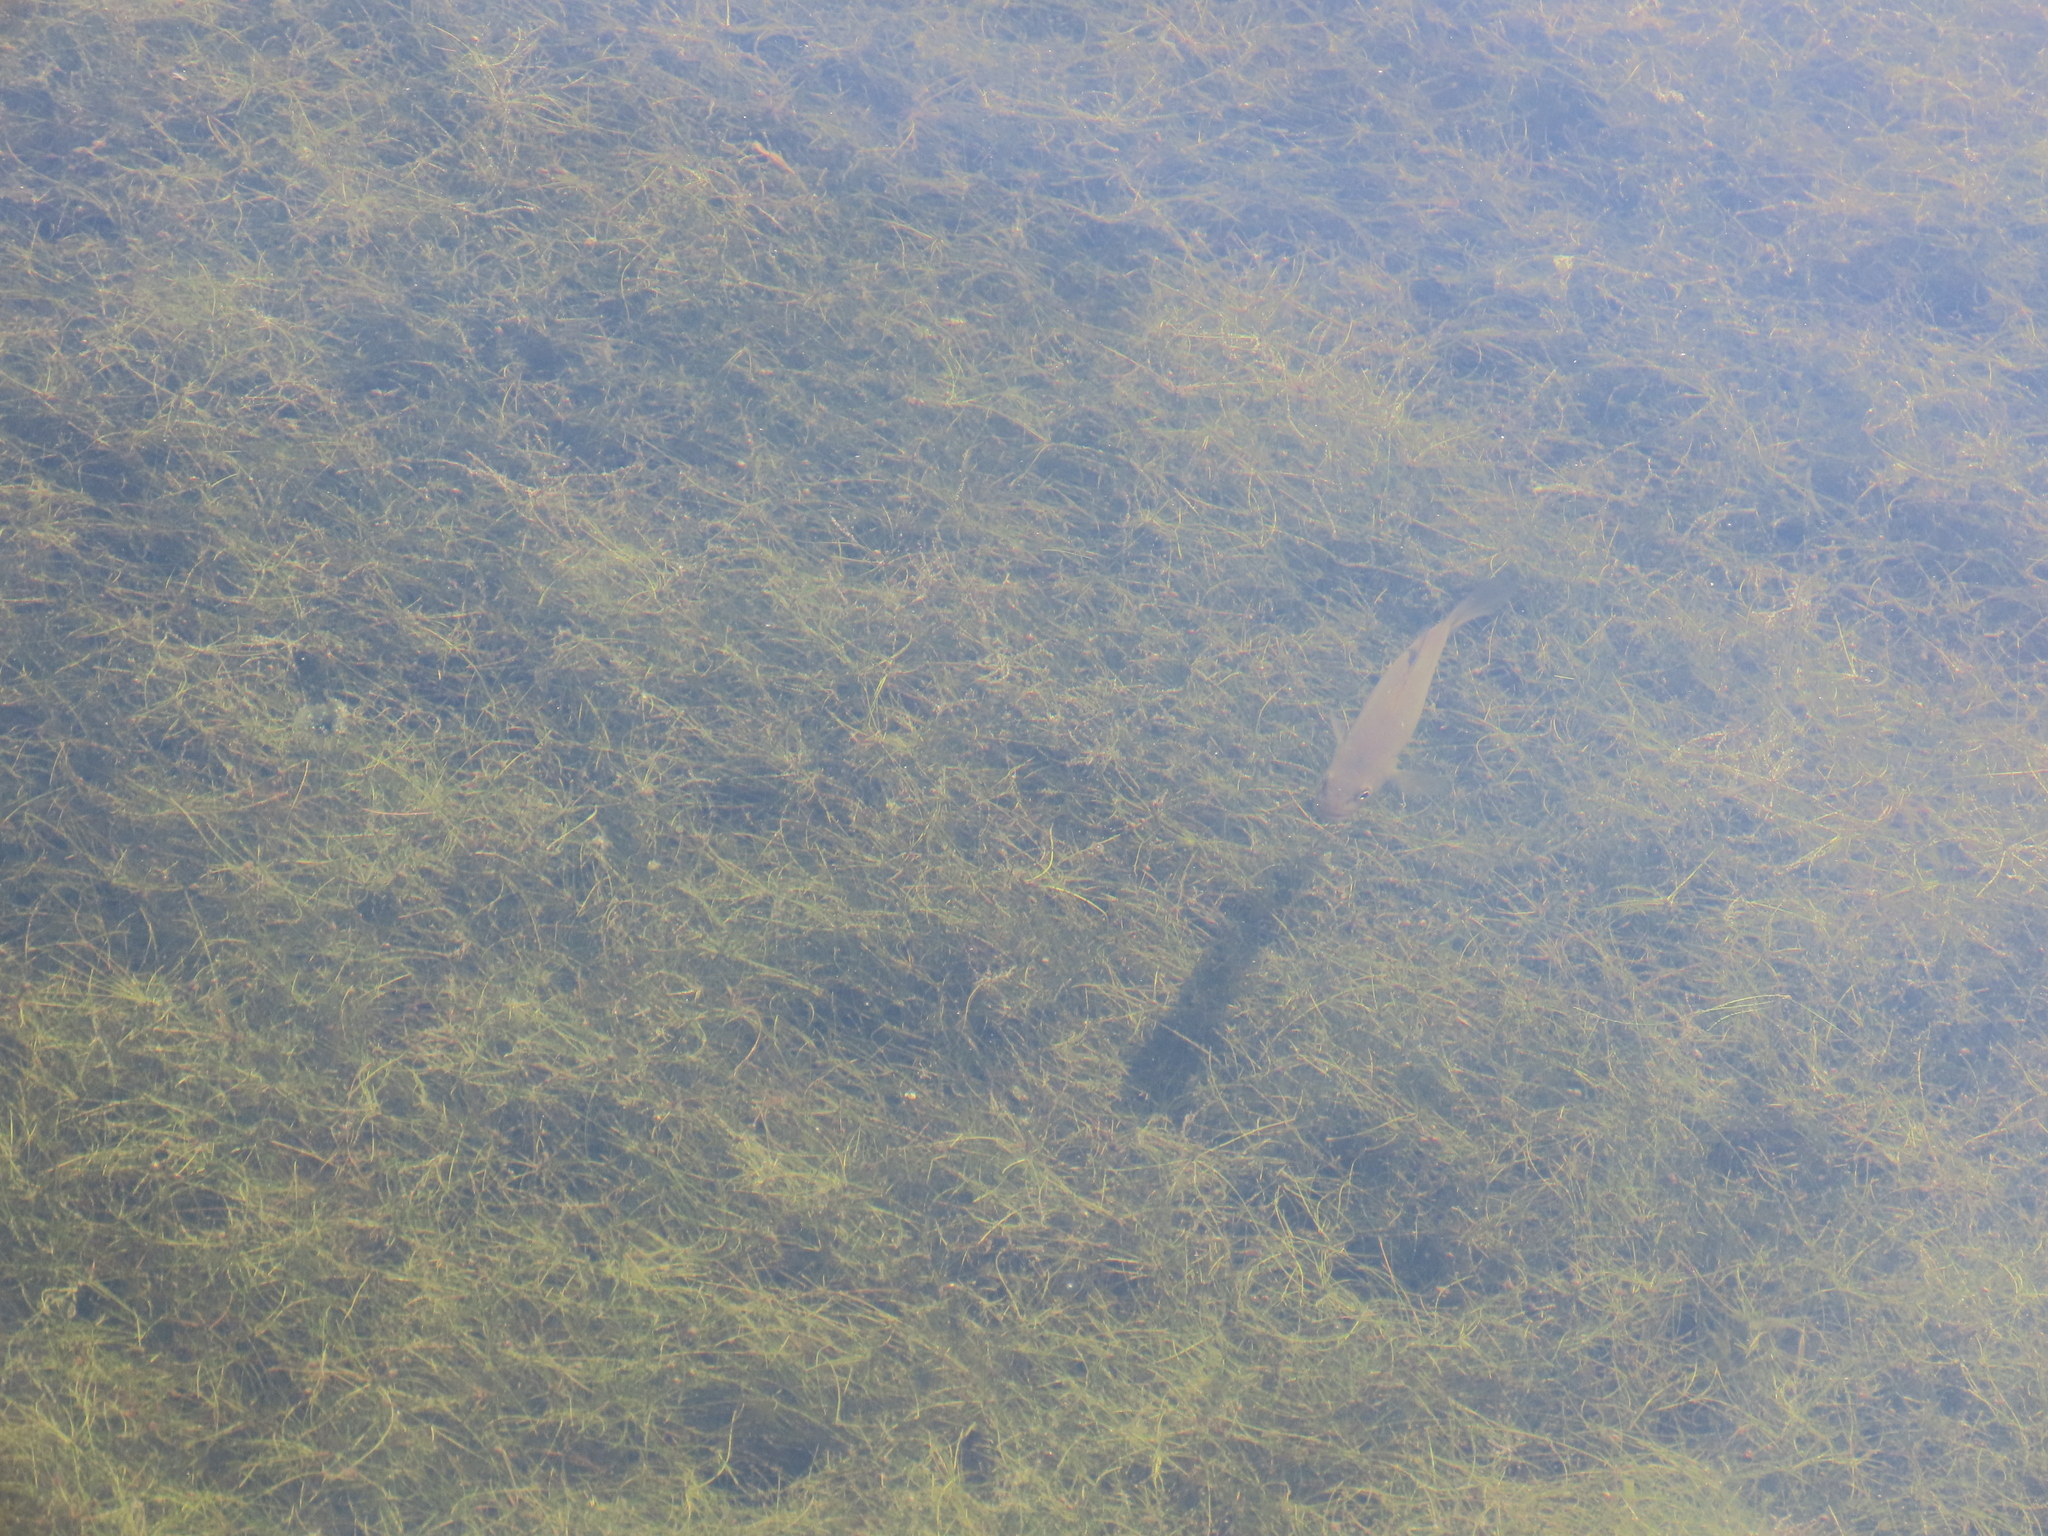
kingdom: Animalia
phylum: Chordata
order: Perciformes
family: Centrarchidae
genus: Micropterus
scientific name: Micropterus salmoides
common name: Largemouth bass
